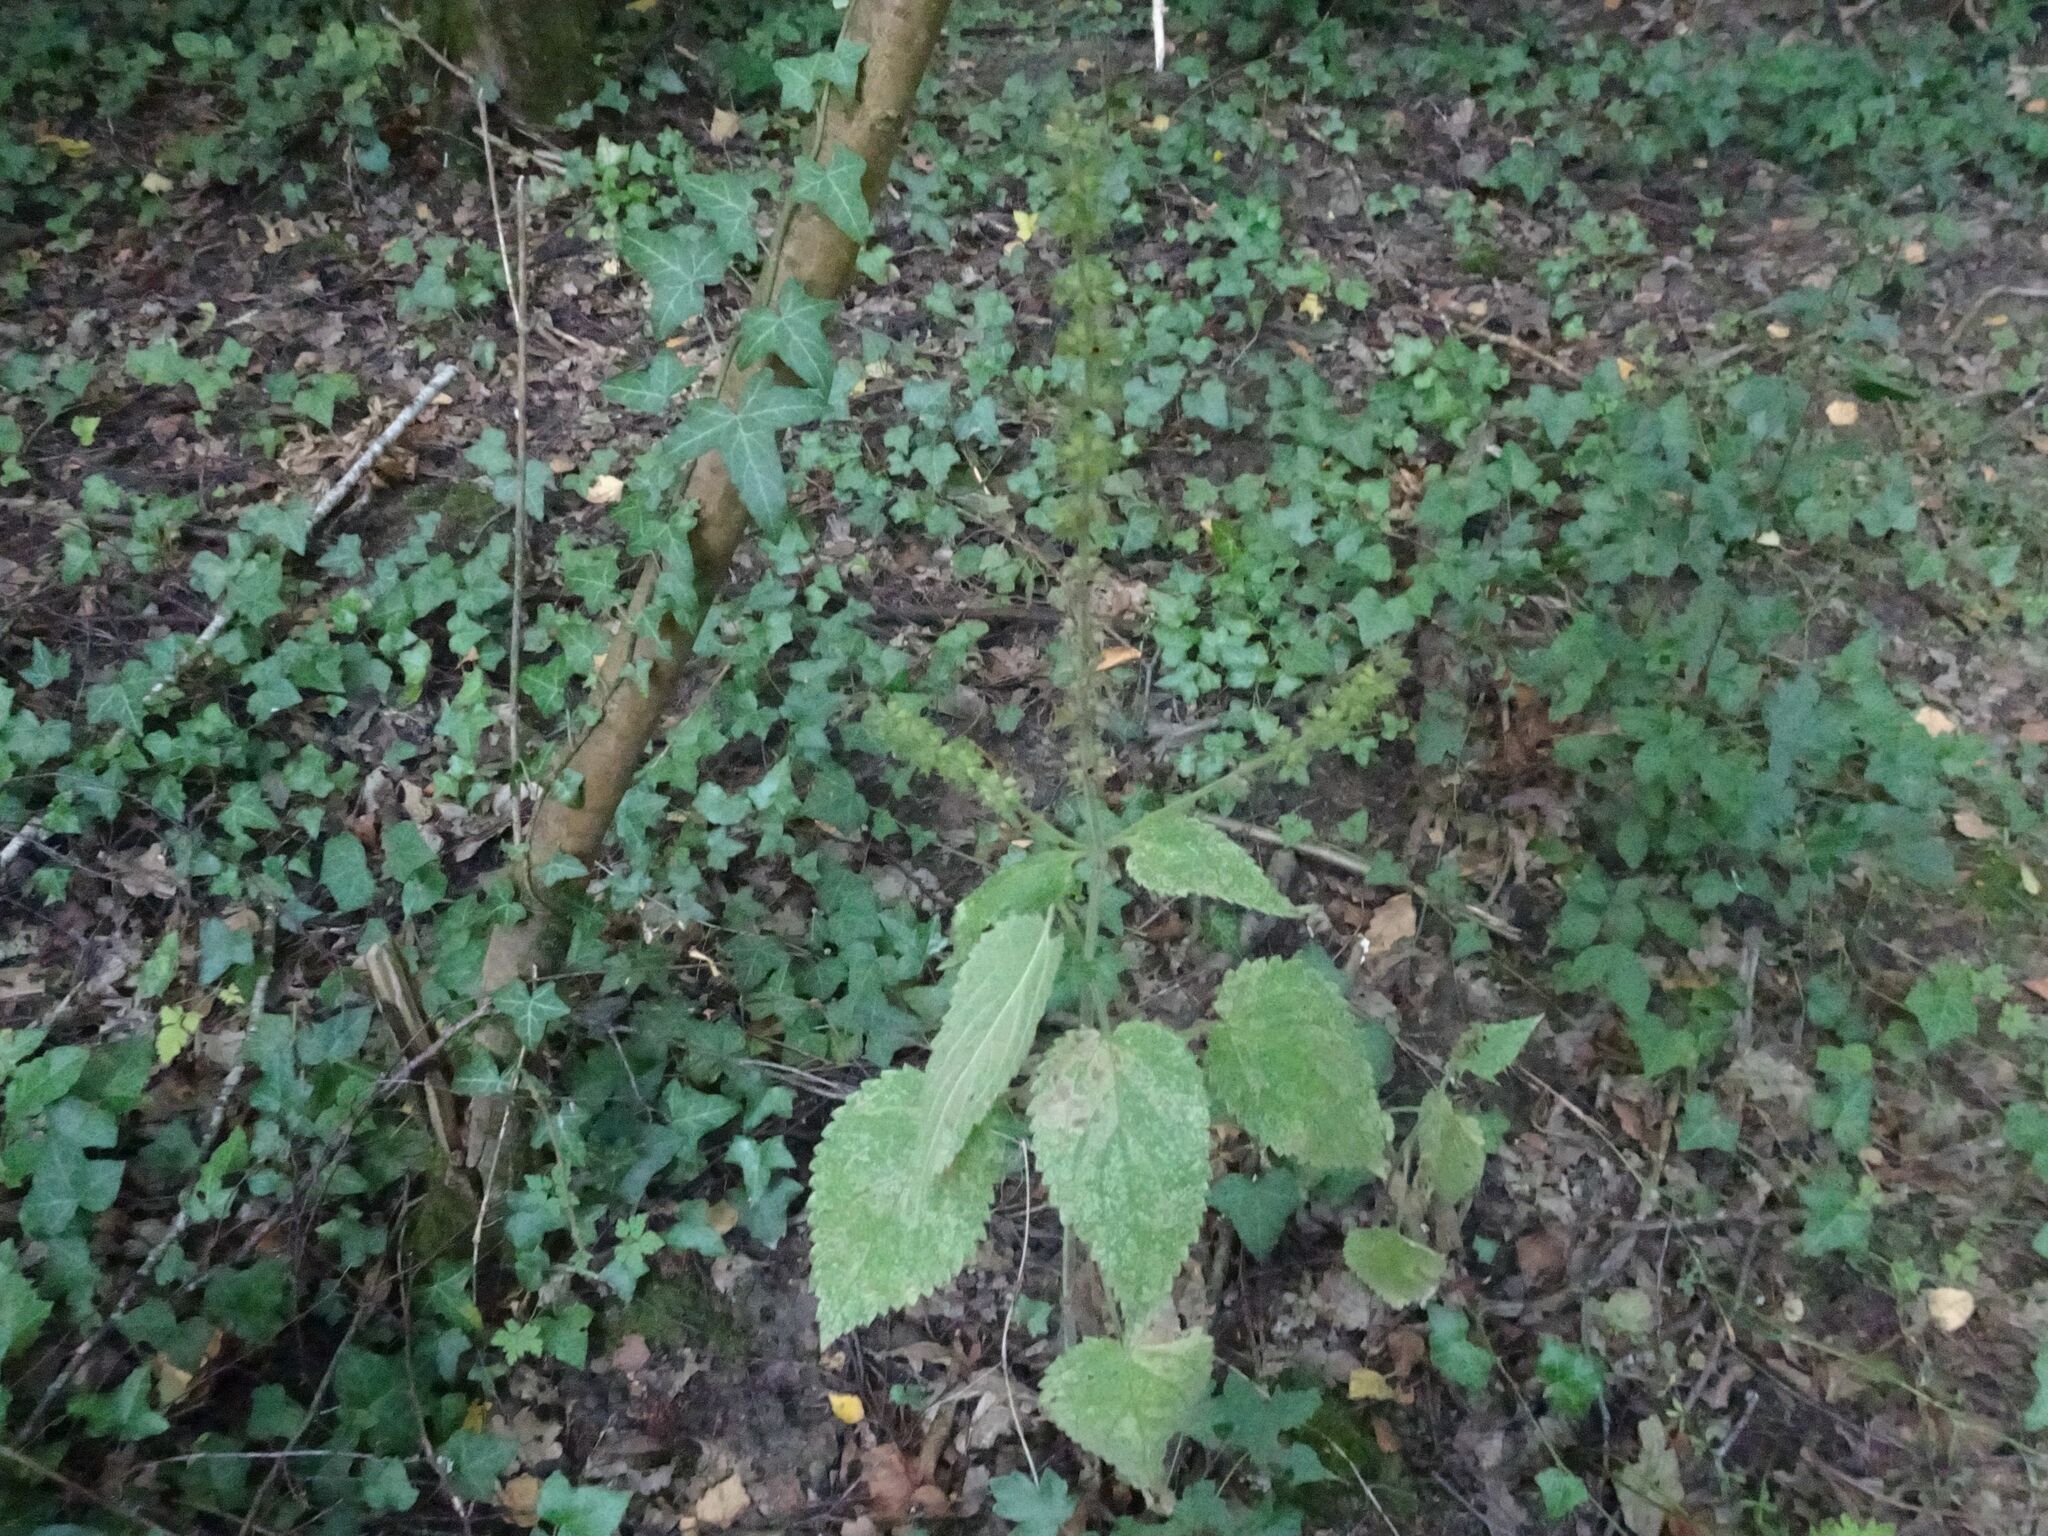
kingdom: Plantae
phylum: Tracheophyta
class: Magnoliopsida
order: Lamiales
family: Lamiaceae
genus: Stachys
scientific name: Stachys sylvatica
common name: Hedge woundwort
